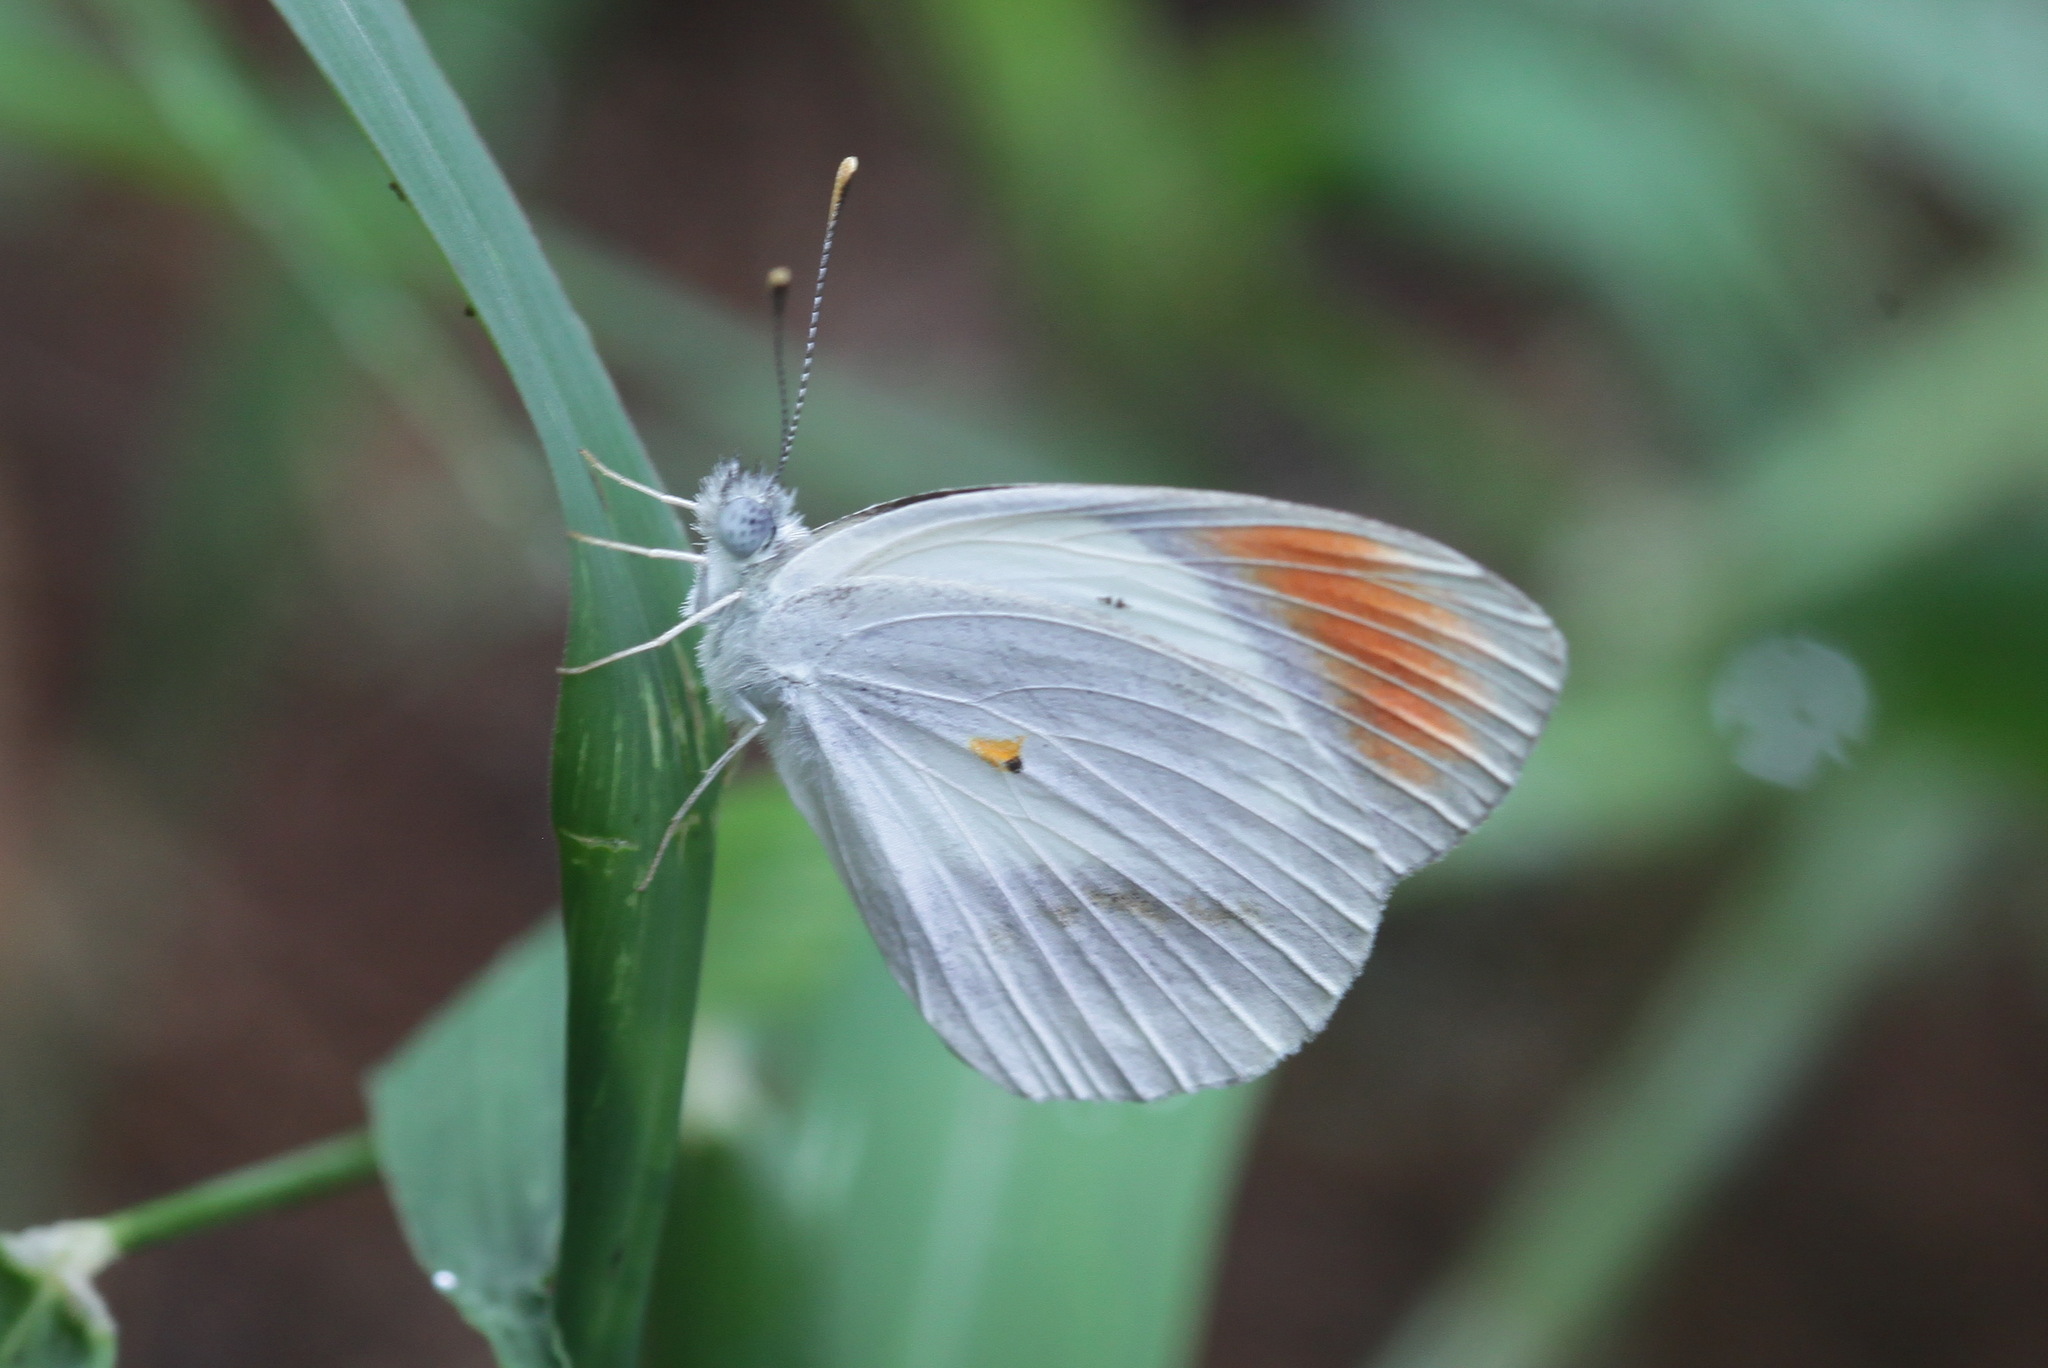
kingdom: Animalia
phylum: Arthropoda
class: Insecta
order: Lepidoptera
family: Pieridae
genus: Colotis
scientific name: Colotis euippe
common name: Round-winged orange tip
